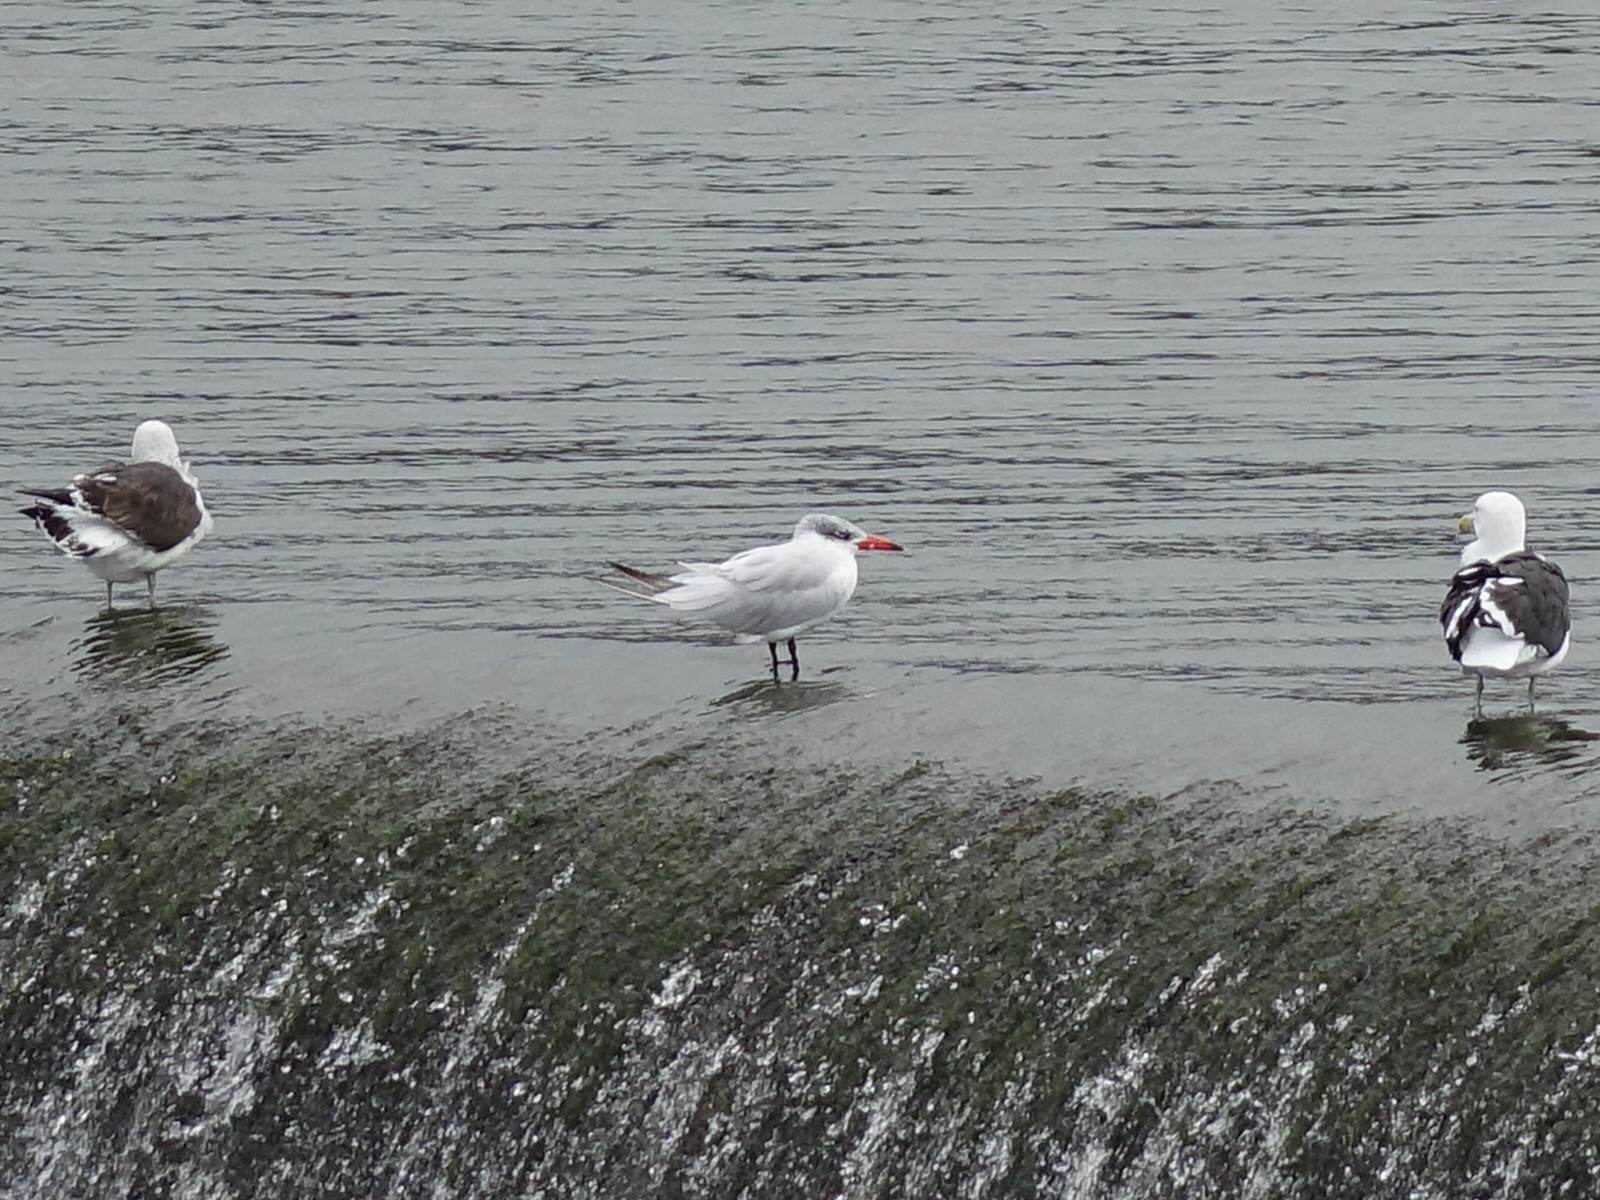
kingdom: Animalia
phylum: Chordata
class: Aves
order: Charadriiformes
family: Laridae
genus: Hydroprogne
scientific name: Hydroprogne caspia
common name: Caspian tern
